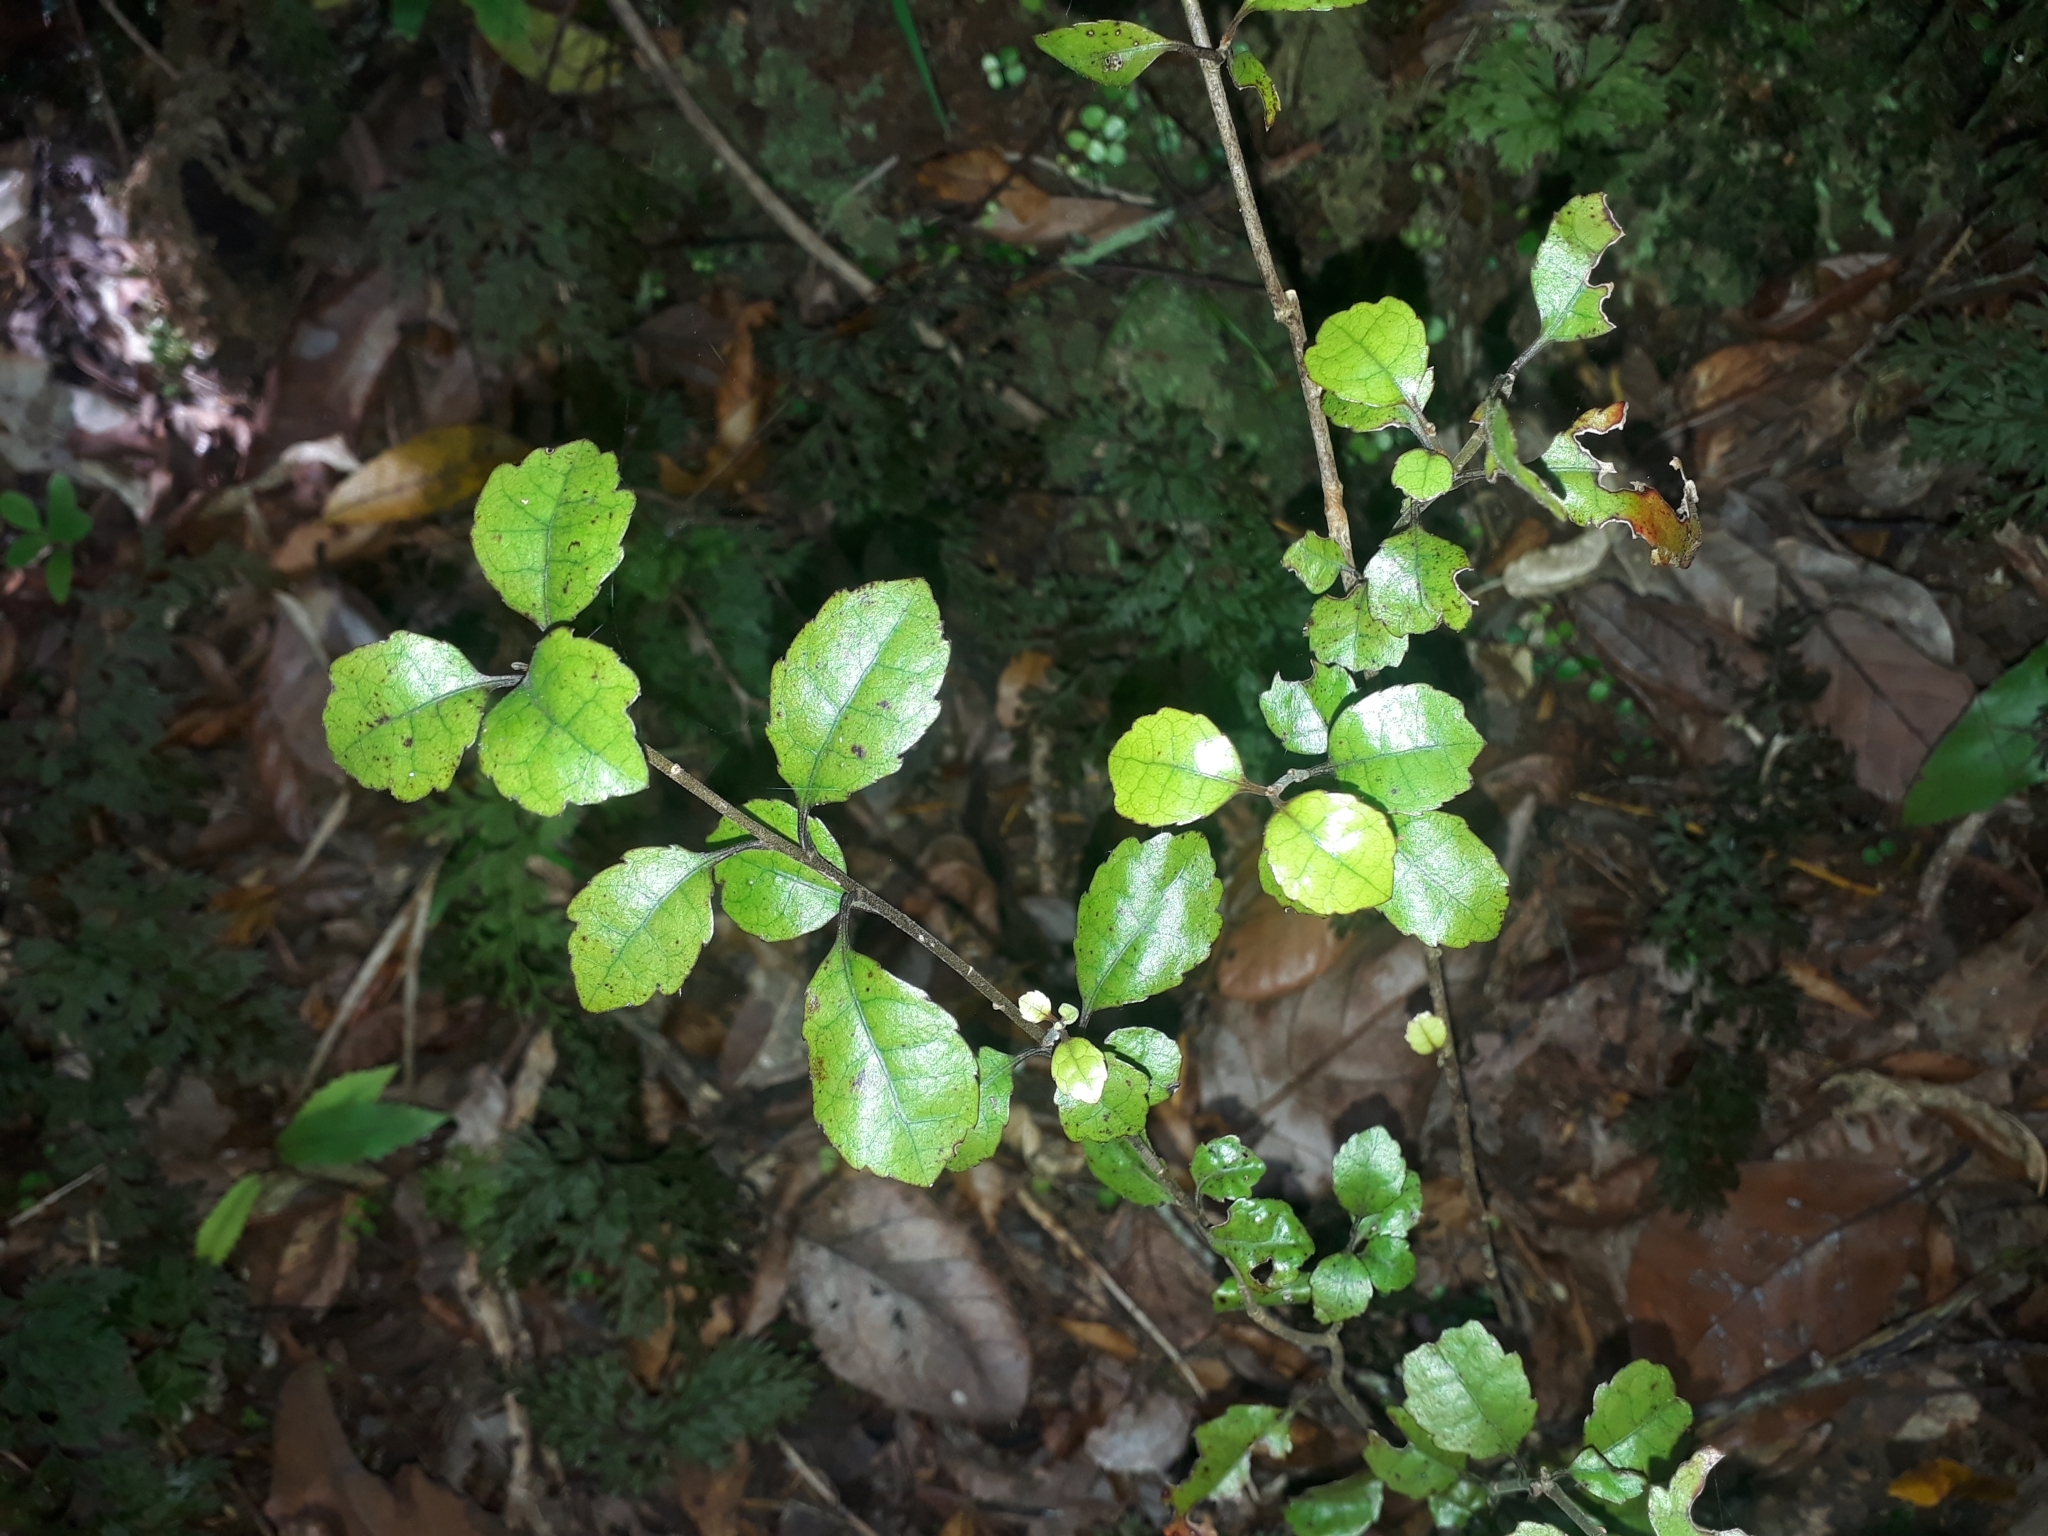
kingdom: Plantae
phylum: Tracheophyta
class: Magnoliopsida
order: Asterales
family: Alseuosmiaceae
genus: Alseuosmia
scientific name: Alseuosmia banksii
